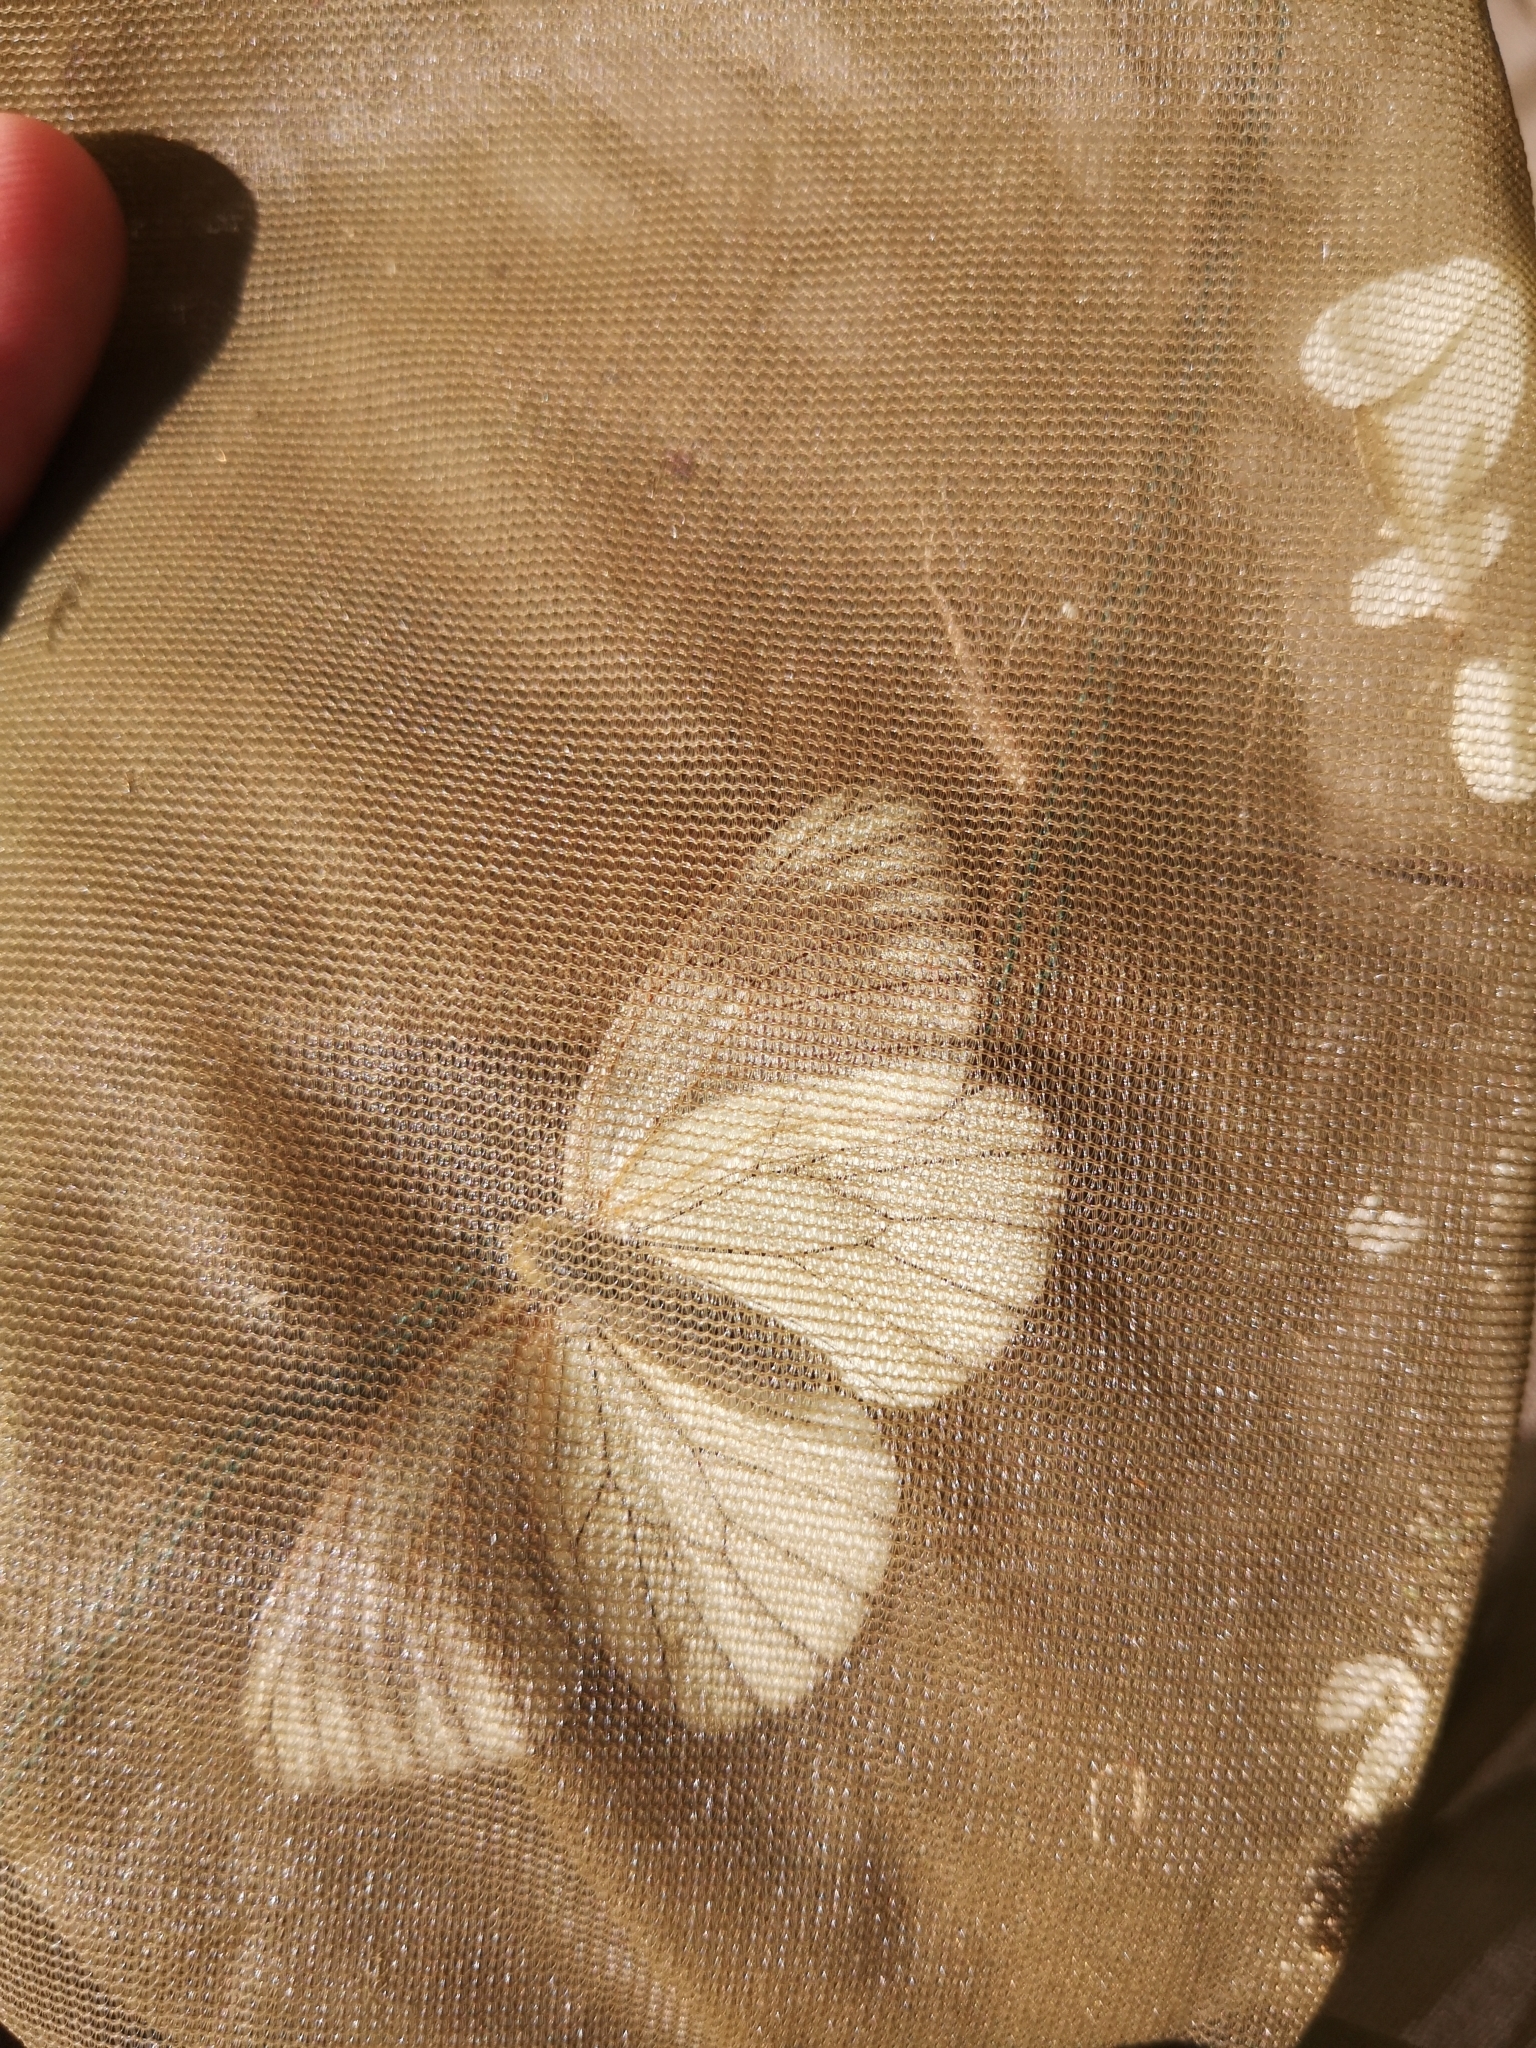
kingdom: Animalia
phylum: Arthropoda
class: Insecta
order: Lepidoptera
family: Pieridae
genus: Aporia
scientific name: Aporia crataegi
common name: Black-veined white
